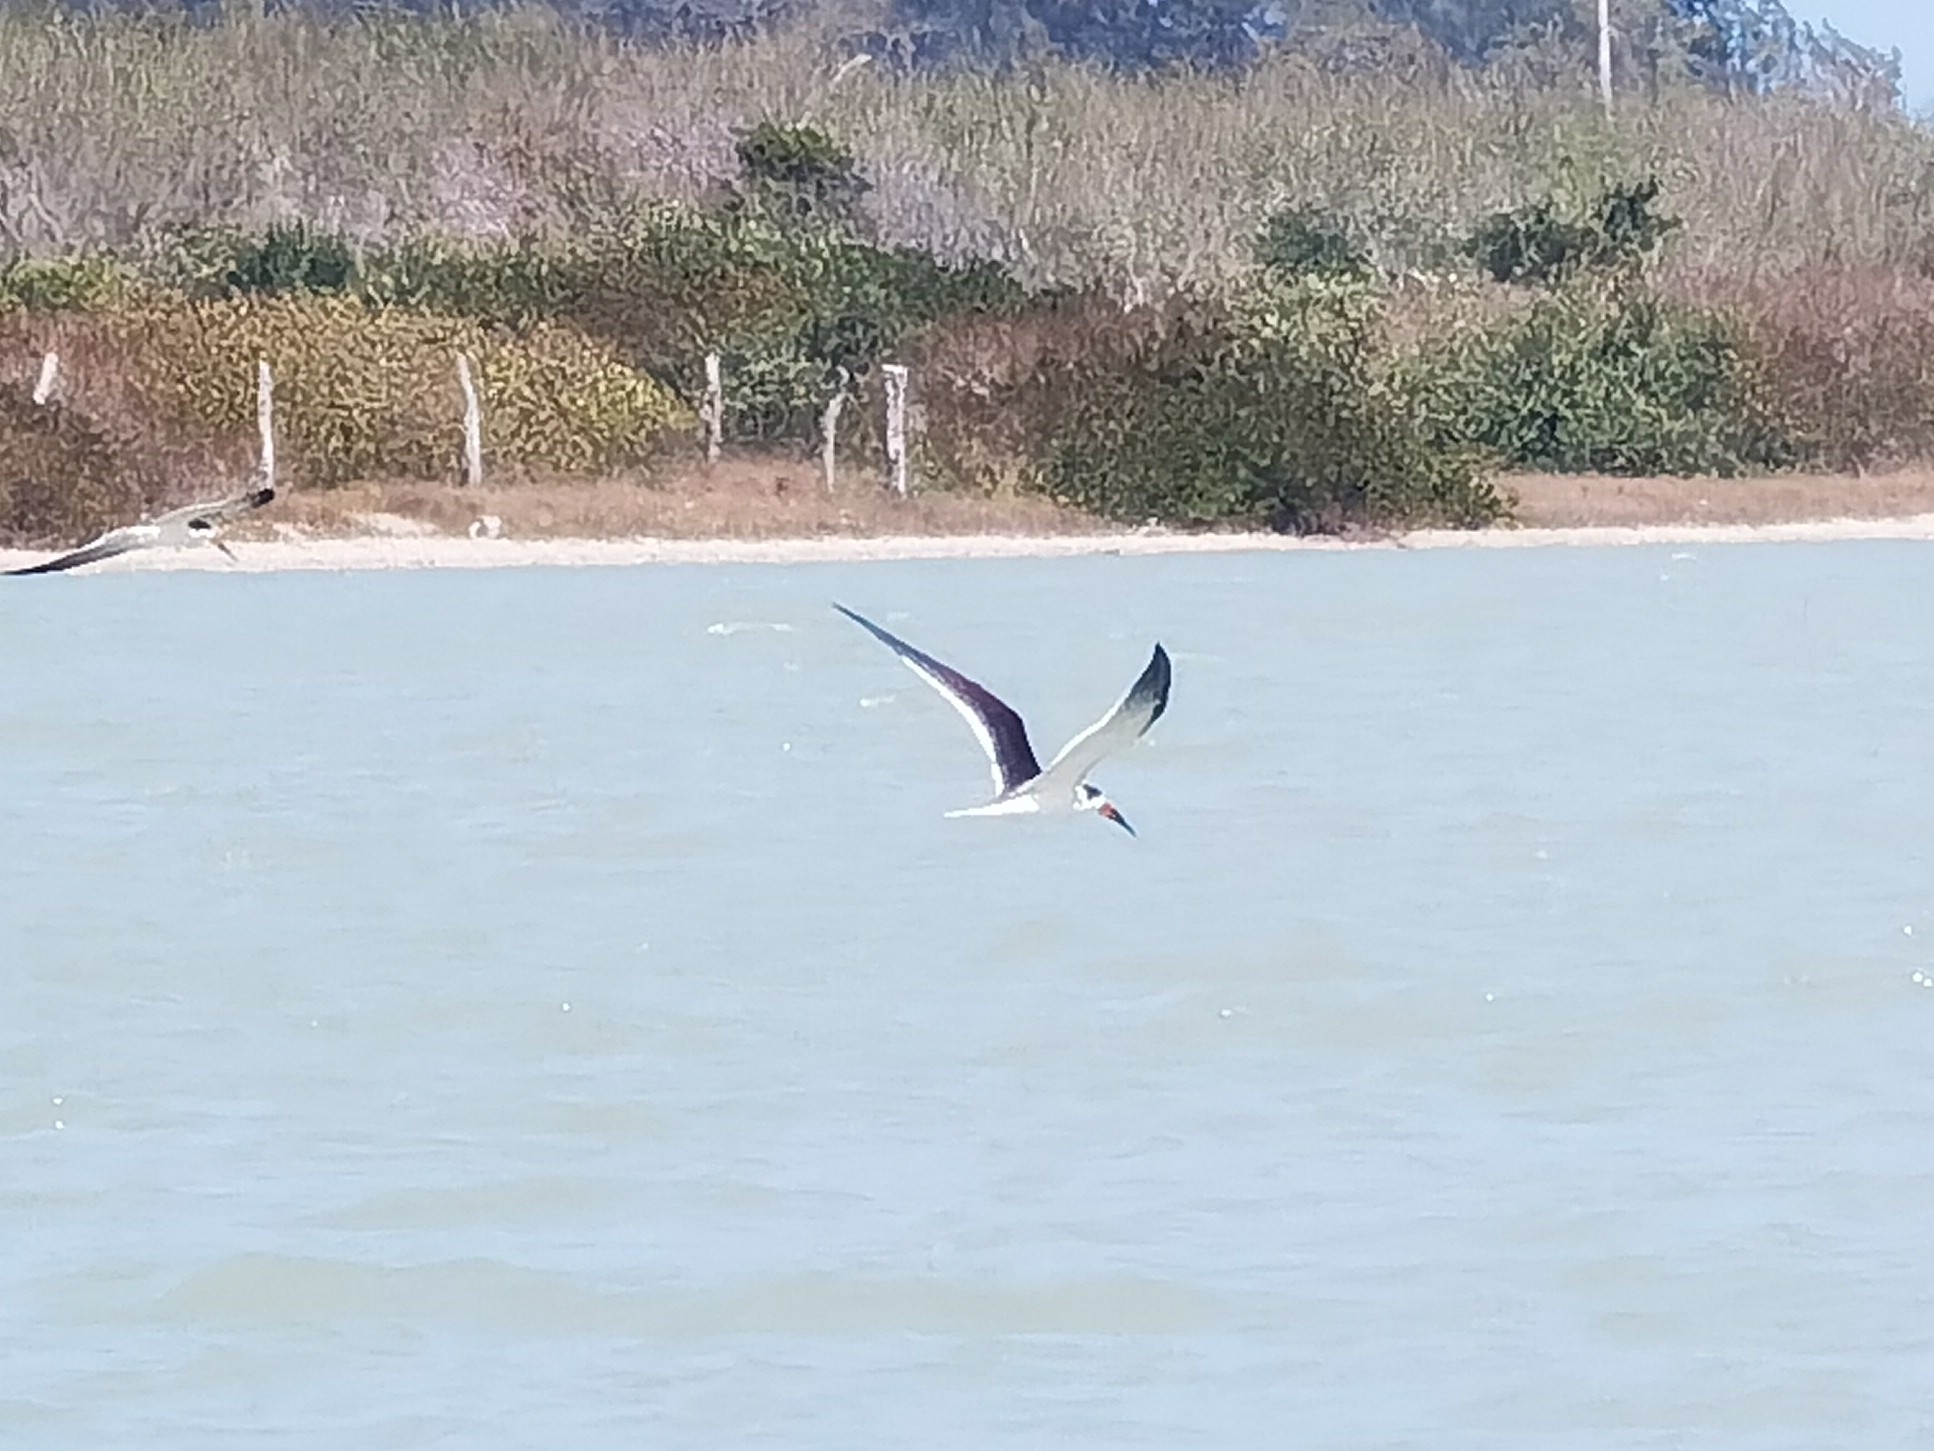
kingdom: Animalia
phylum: Chordata
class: Aves
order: Charadriiformes
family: Laridae
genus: Rynchops
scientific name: Rynchops niger
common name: Black skimmer
